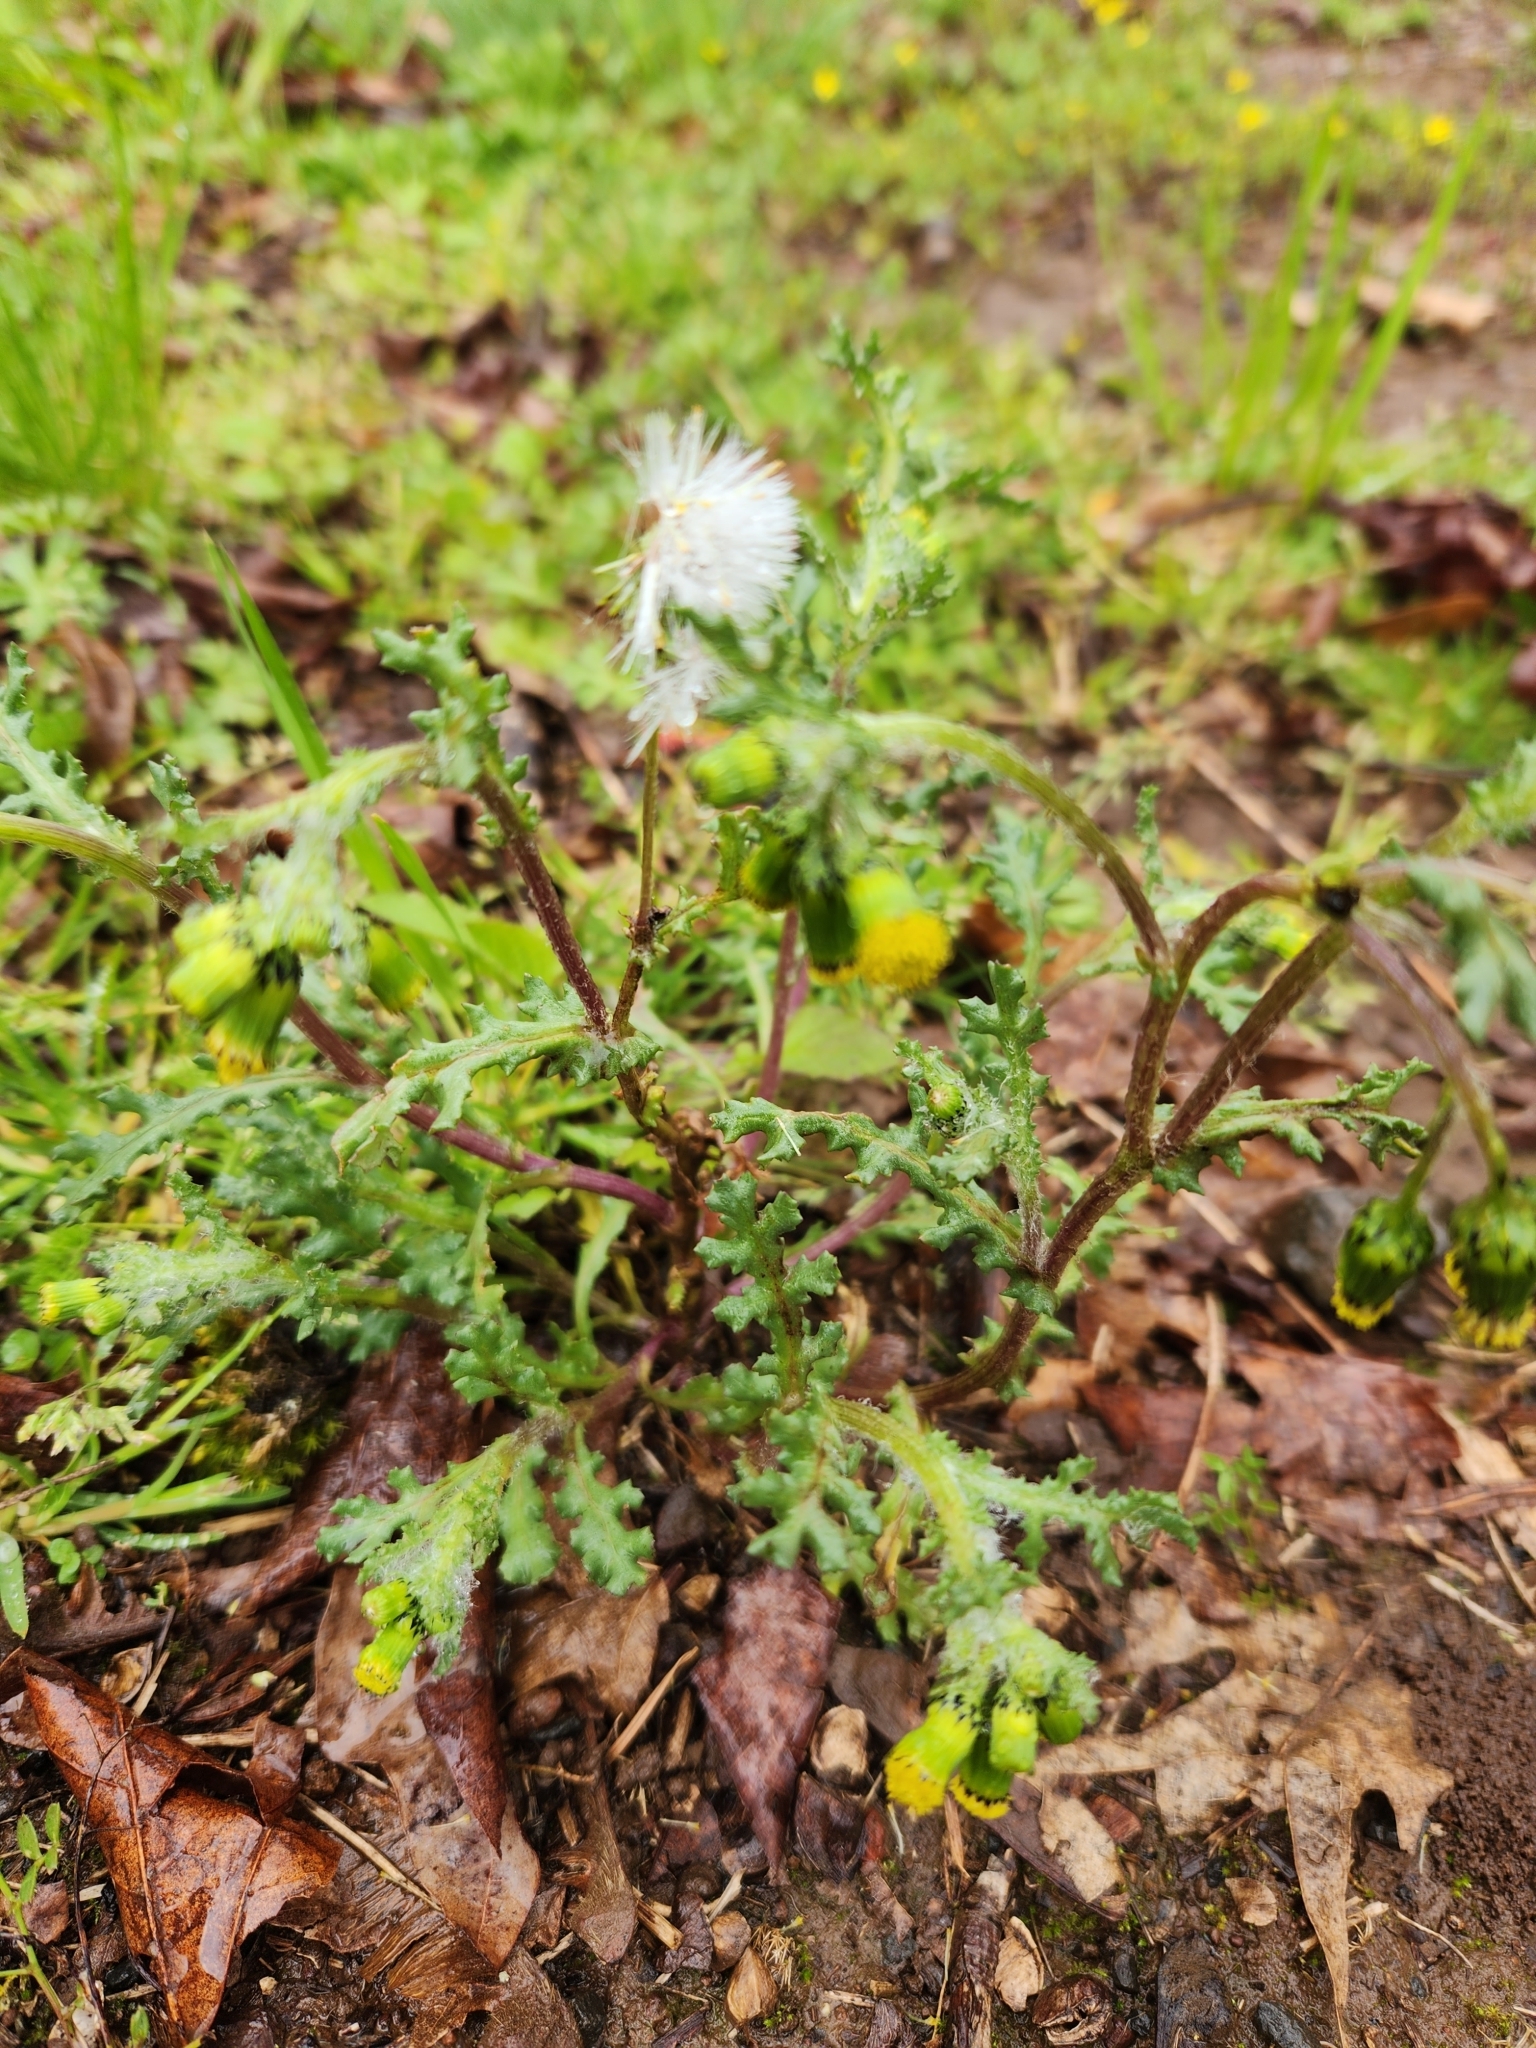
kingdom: Plantae
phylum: Tracheophyta
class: Magnoliopsida
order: Asterales
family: Asteraceae
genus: Senecio
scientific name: Senecio vulgaris
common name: Old-man-in-the-spring
